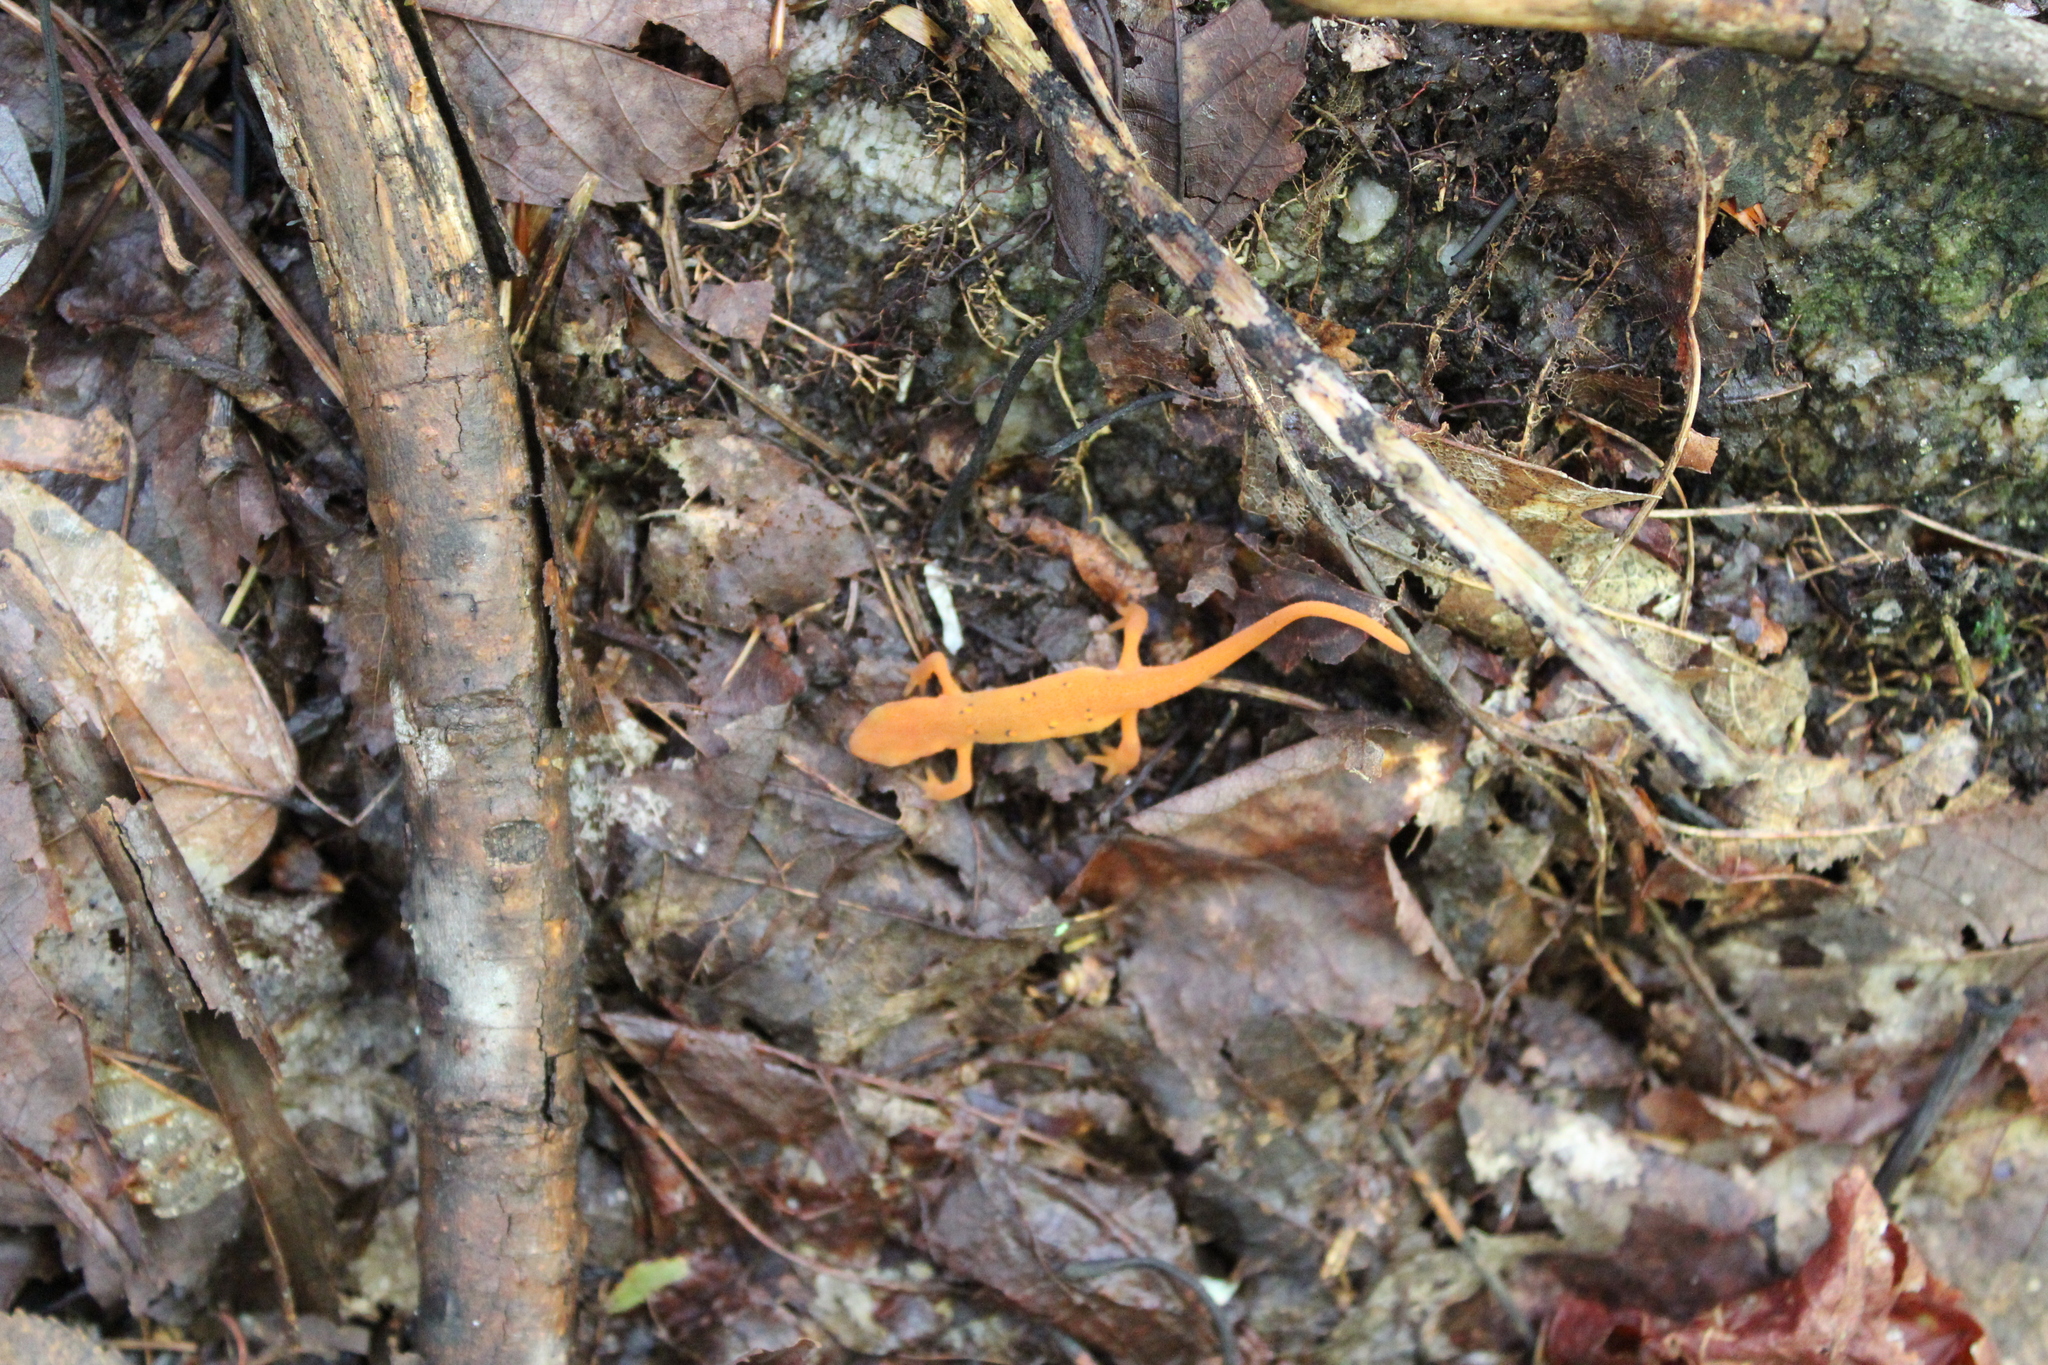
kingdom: Animalia
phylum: Chordata
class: Amphibia
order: Caudata
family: Salamandridae
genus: Notophthalmus
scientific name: Notophthalmus viridescens
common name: Eastern newt
